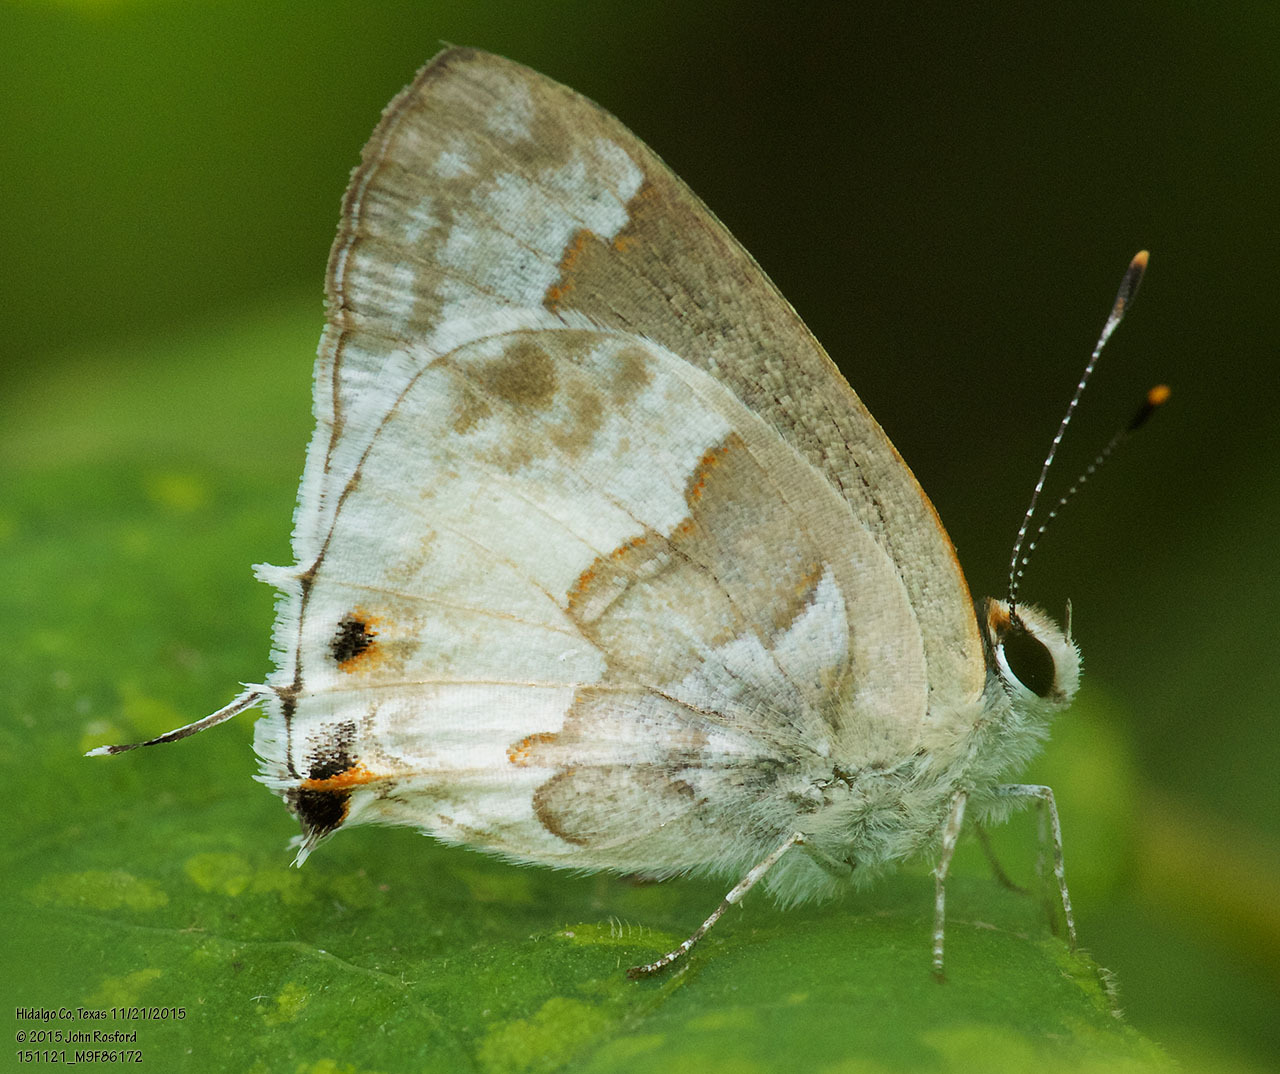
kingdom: Animalia
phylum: Arthropoda
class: Insecta
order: Lepidoptera
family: Lycaenidae
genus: Strymon
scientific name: Strymon albata
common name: White scrub-hairstreak
